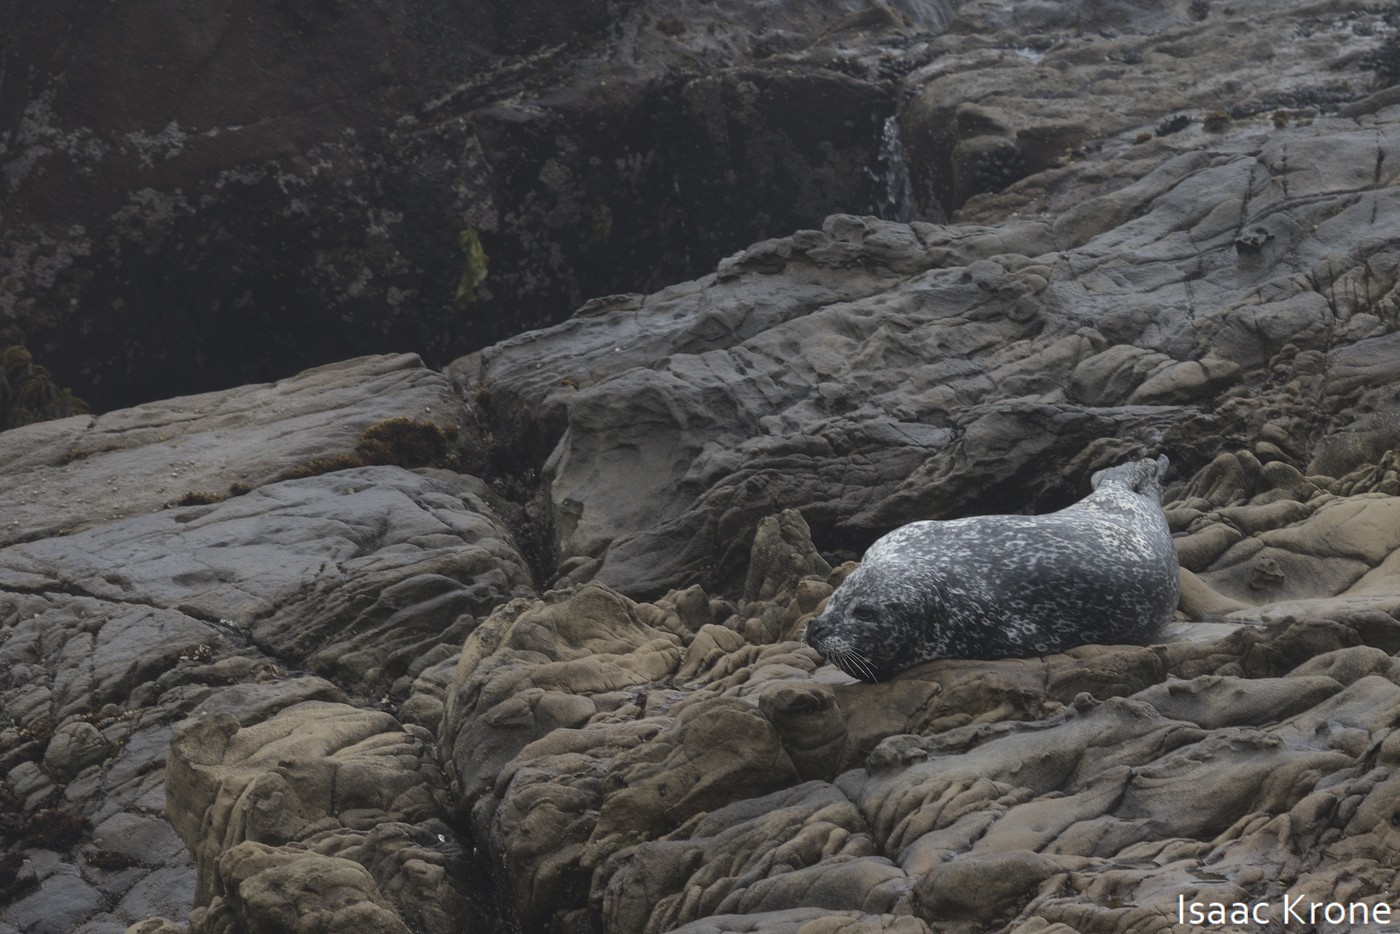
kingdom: Animalia
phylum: Chordata
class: Mammalia
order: Carnivora
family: Phocidae
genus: Phoca
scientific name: Phoca vitulina
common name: Harbor seal
